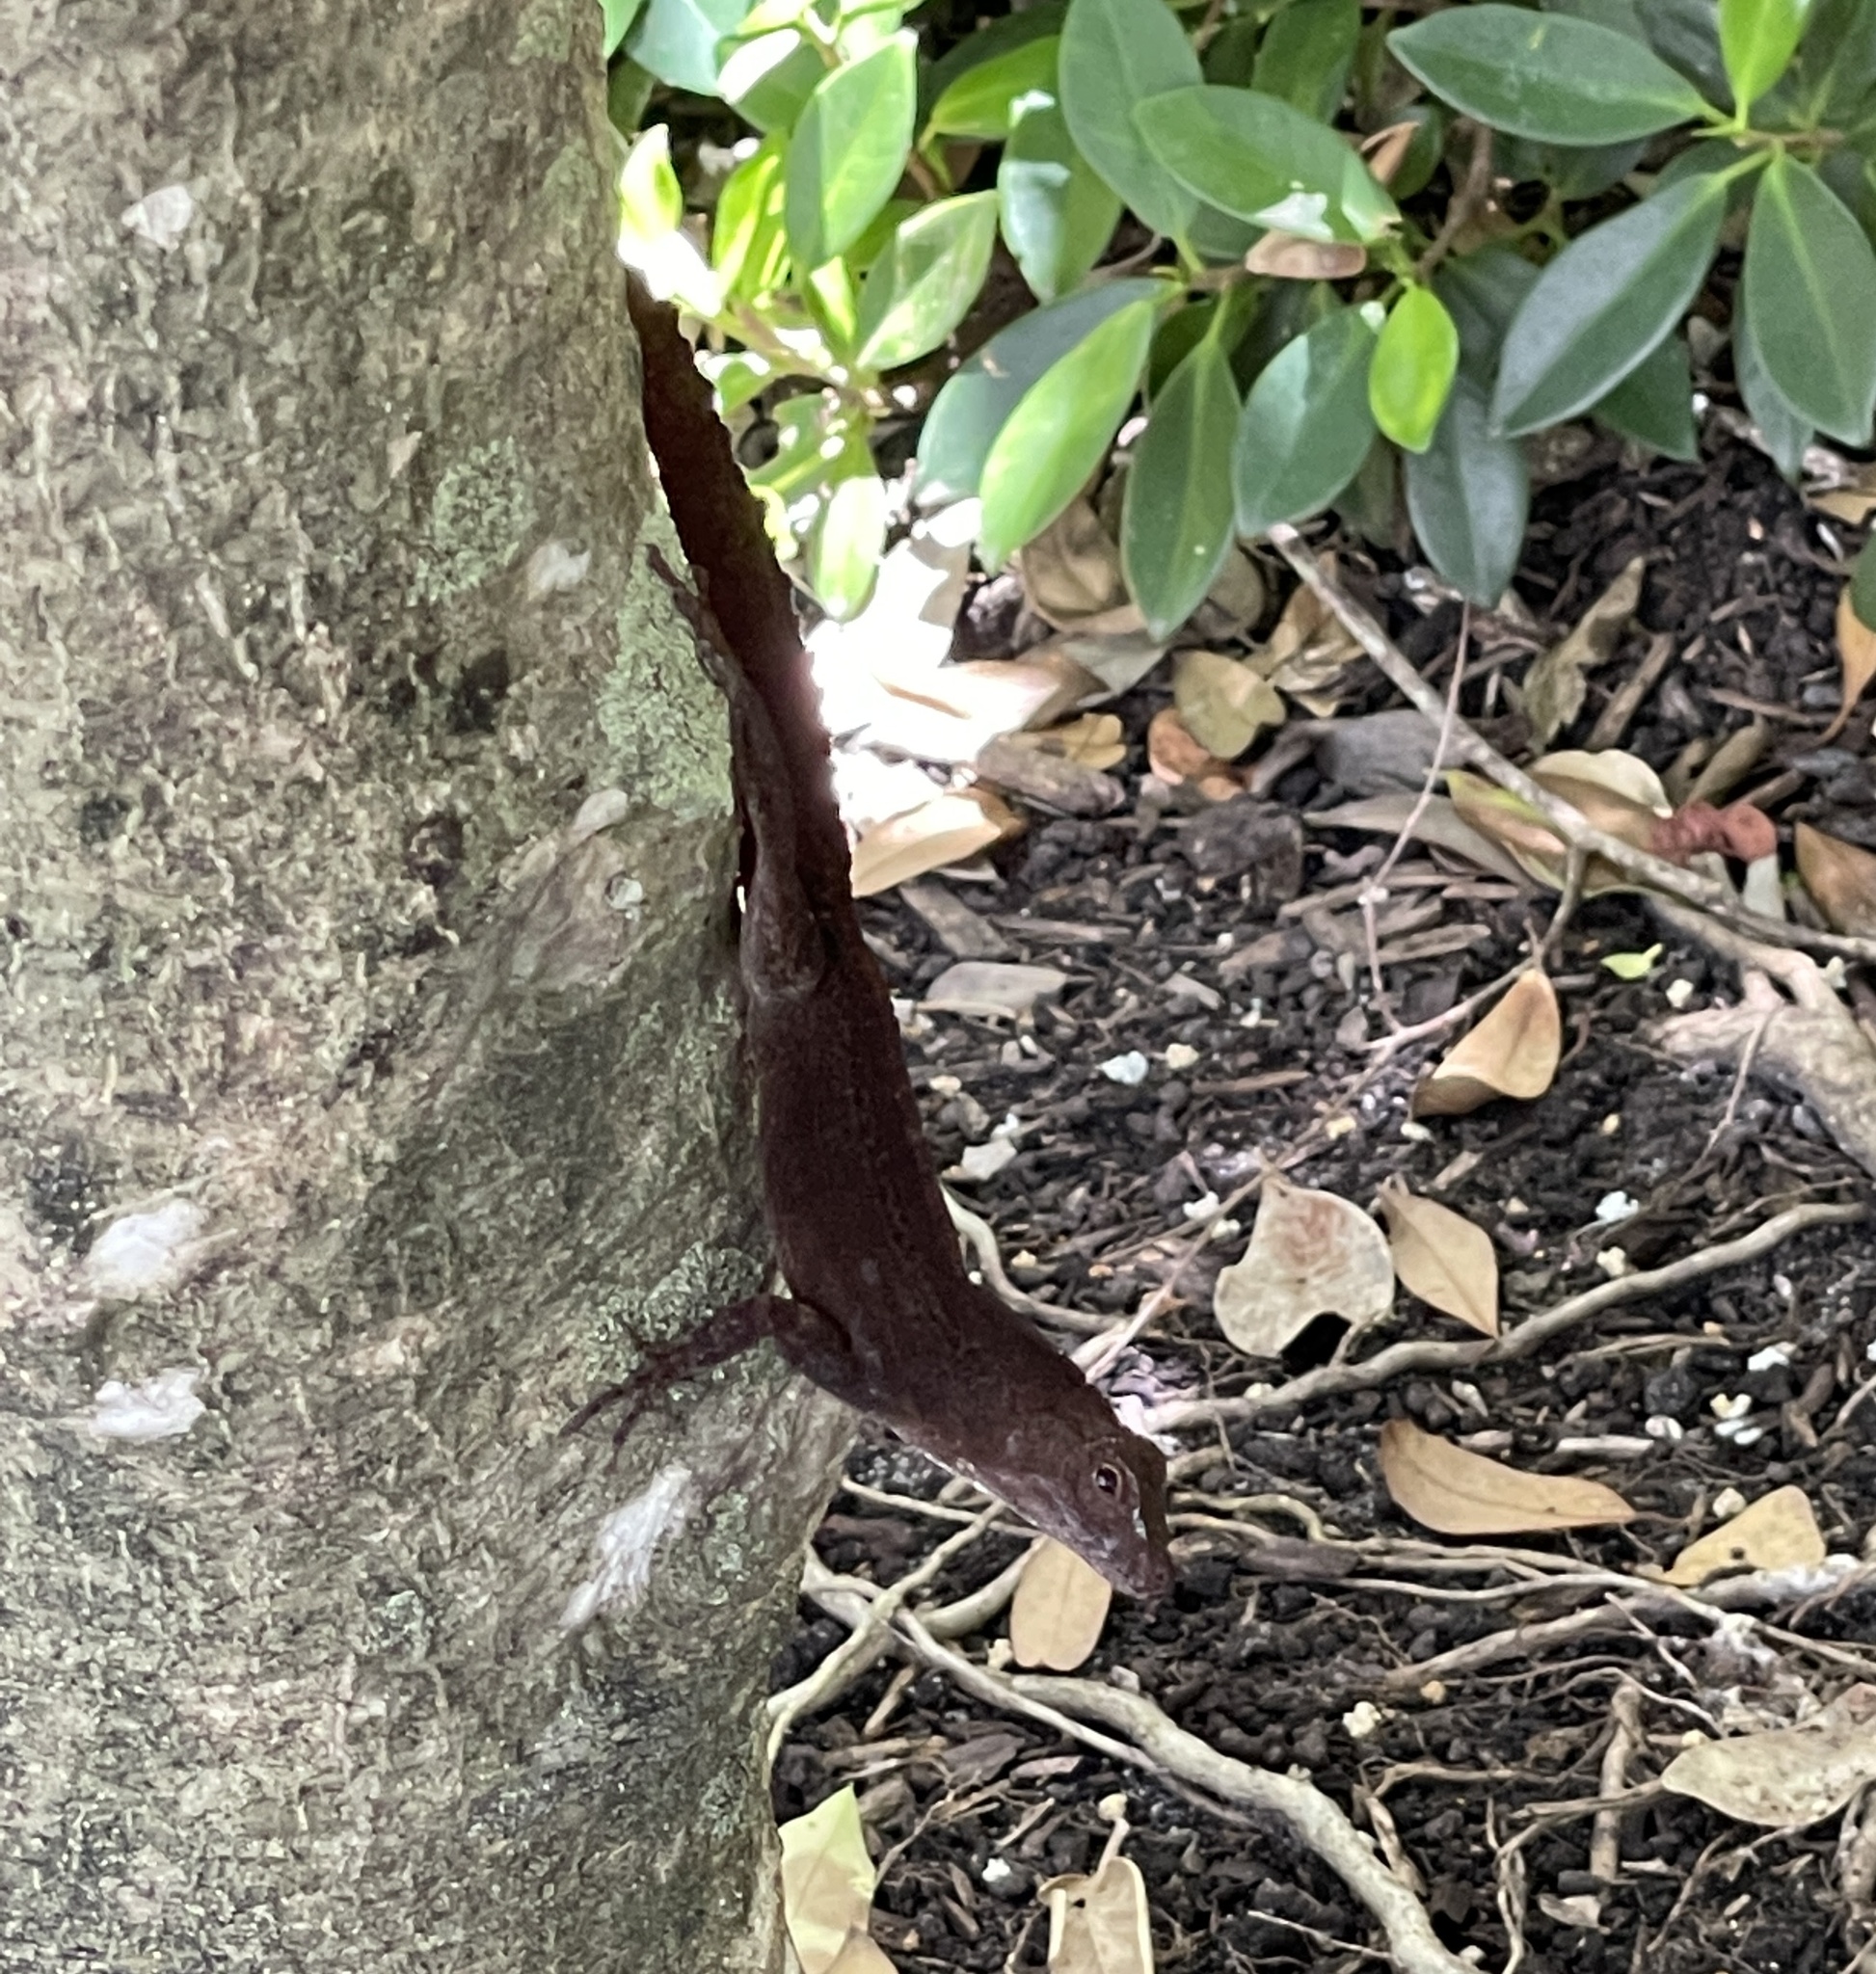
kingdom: Animalia
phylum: Chordata
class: Squamata
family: Dactyloidae
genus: Anolis
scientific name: Anolis cristatellus
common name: Crested anole
